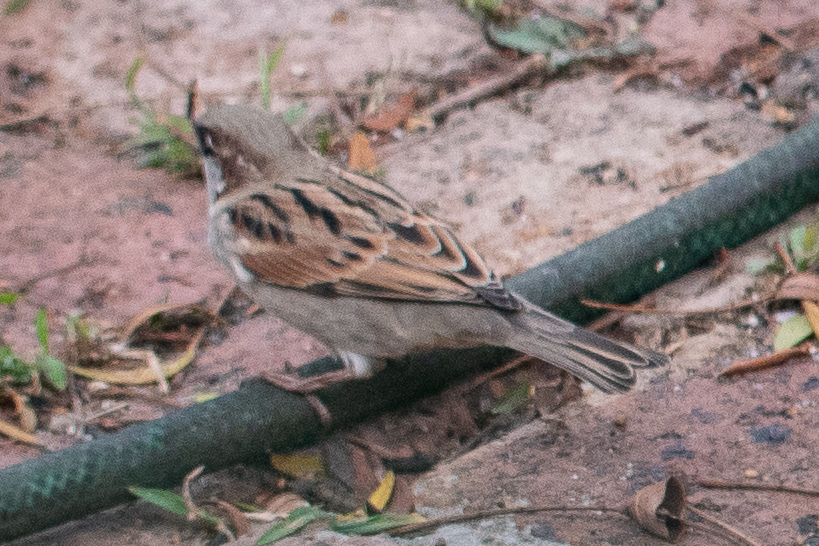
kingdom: Animalia
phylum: Chordata
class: Aves
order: Passeriformes
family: Passeridae
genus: Passer
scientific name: Passer domesticus
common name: House sparrow
